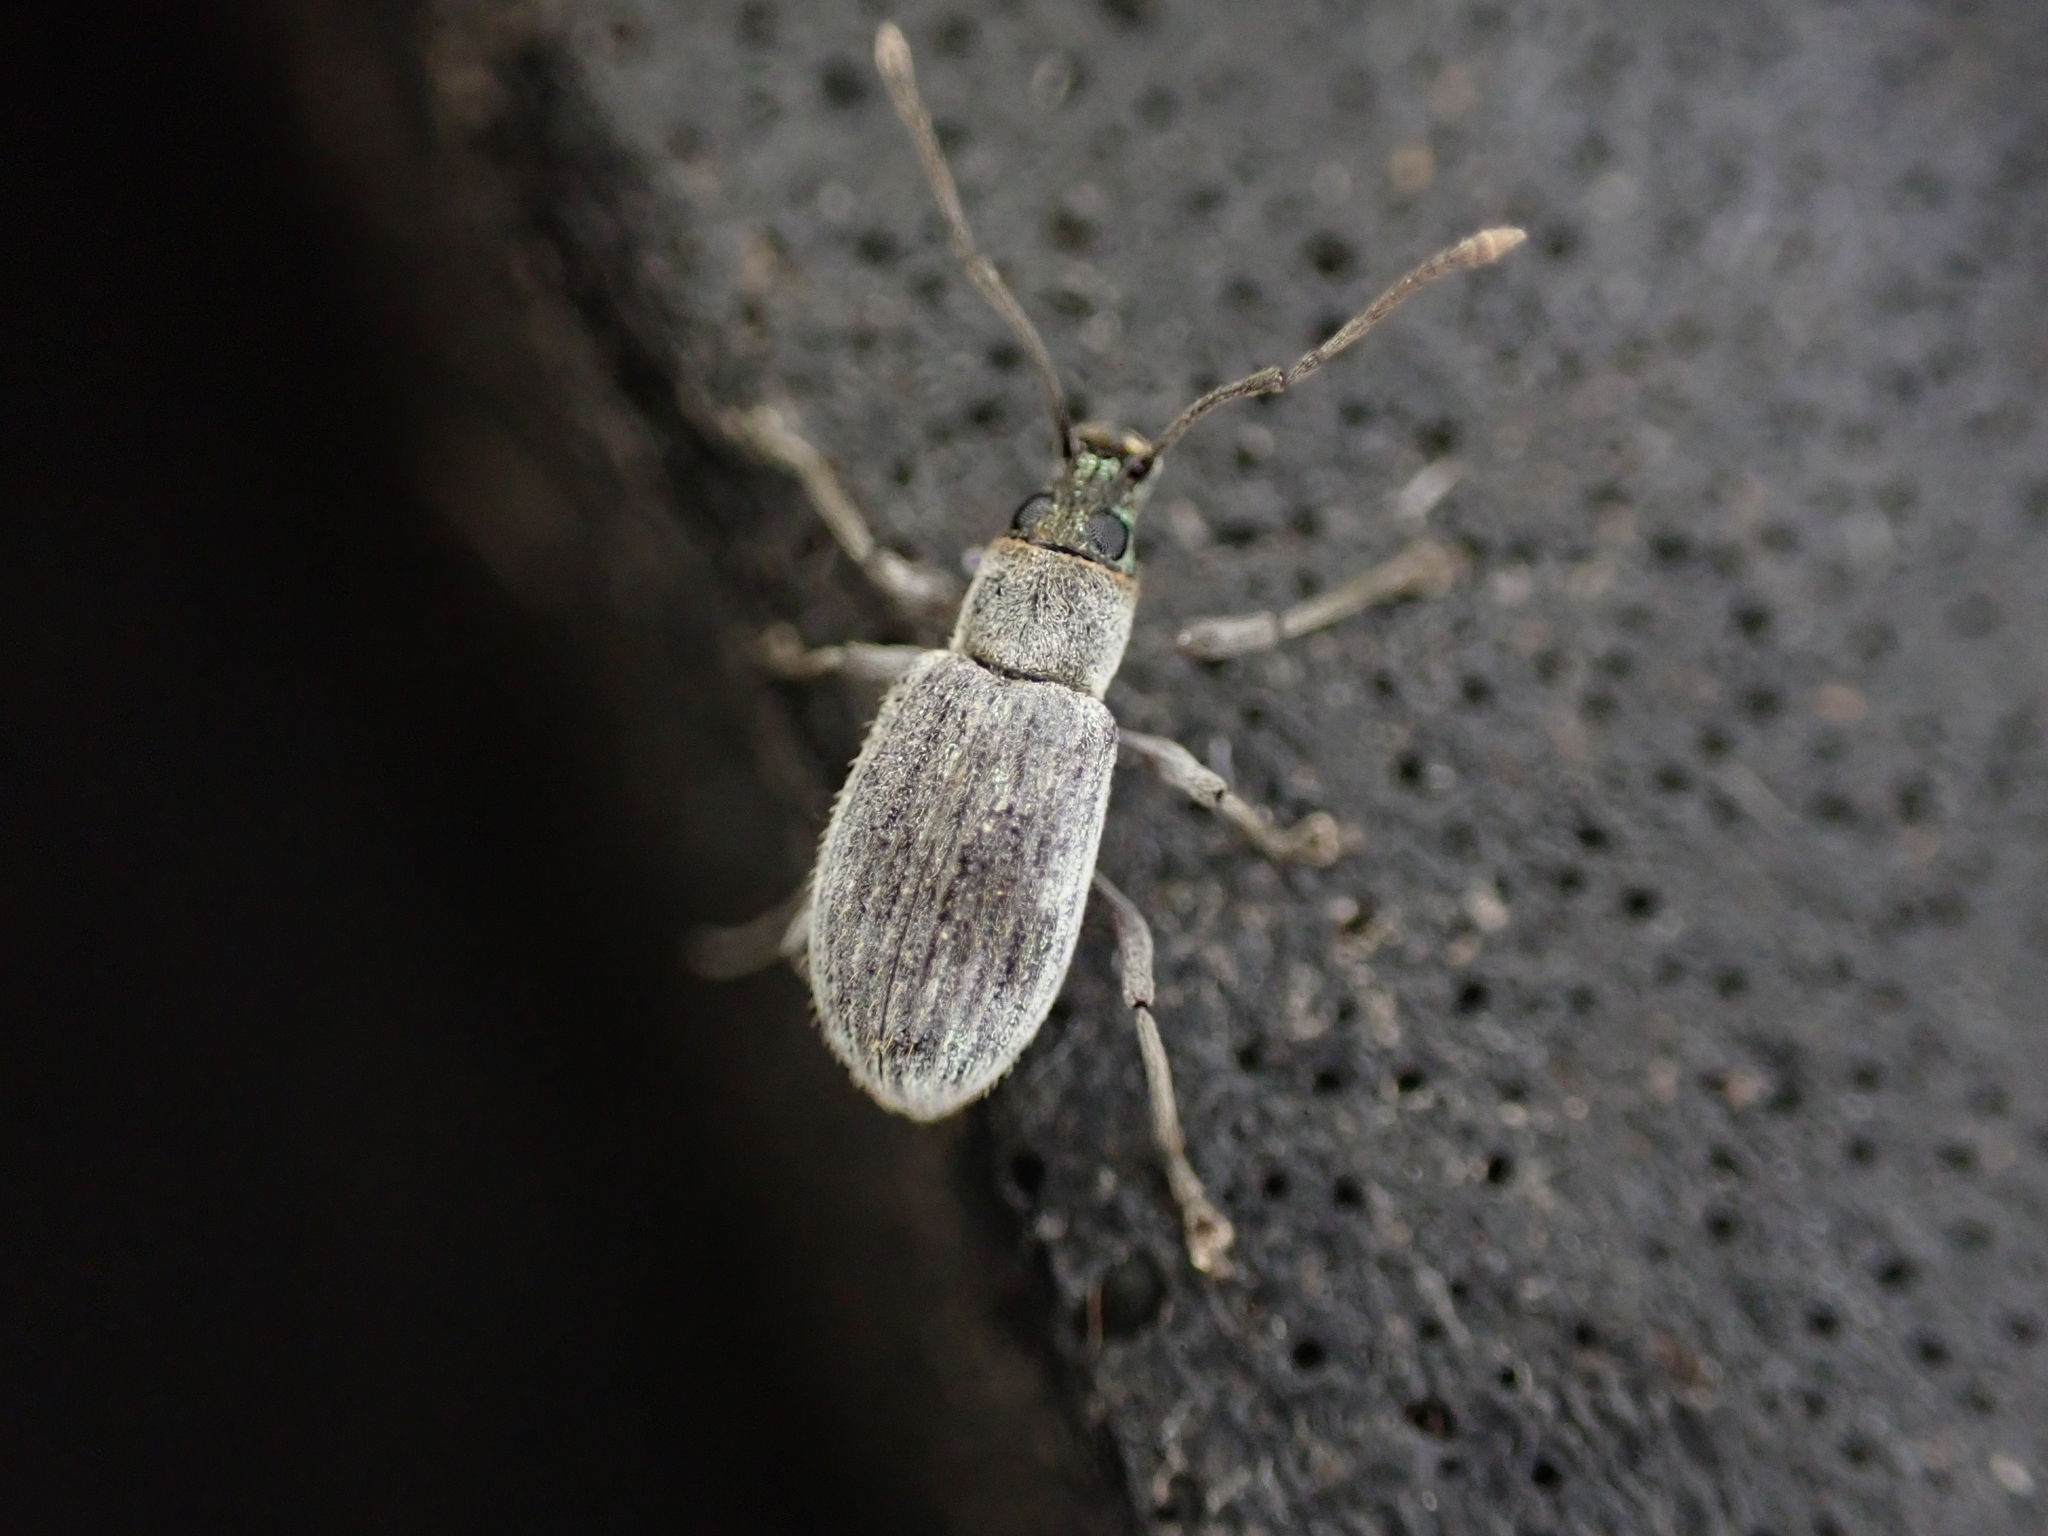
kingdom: Animalia
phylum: Arthropoda
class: Insecta
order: Coleoptera
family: Curculionidae
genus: Cyrtepistomus
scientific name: Cyrtepistomus castaneus
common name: Weevil
